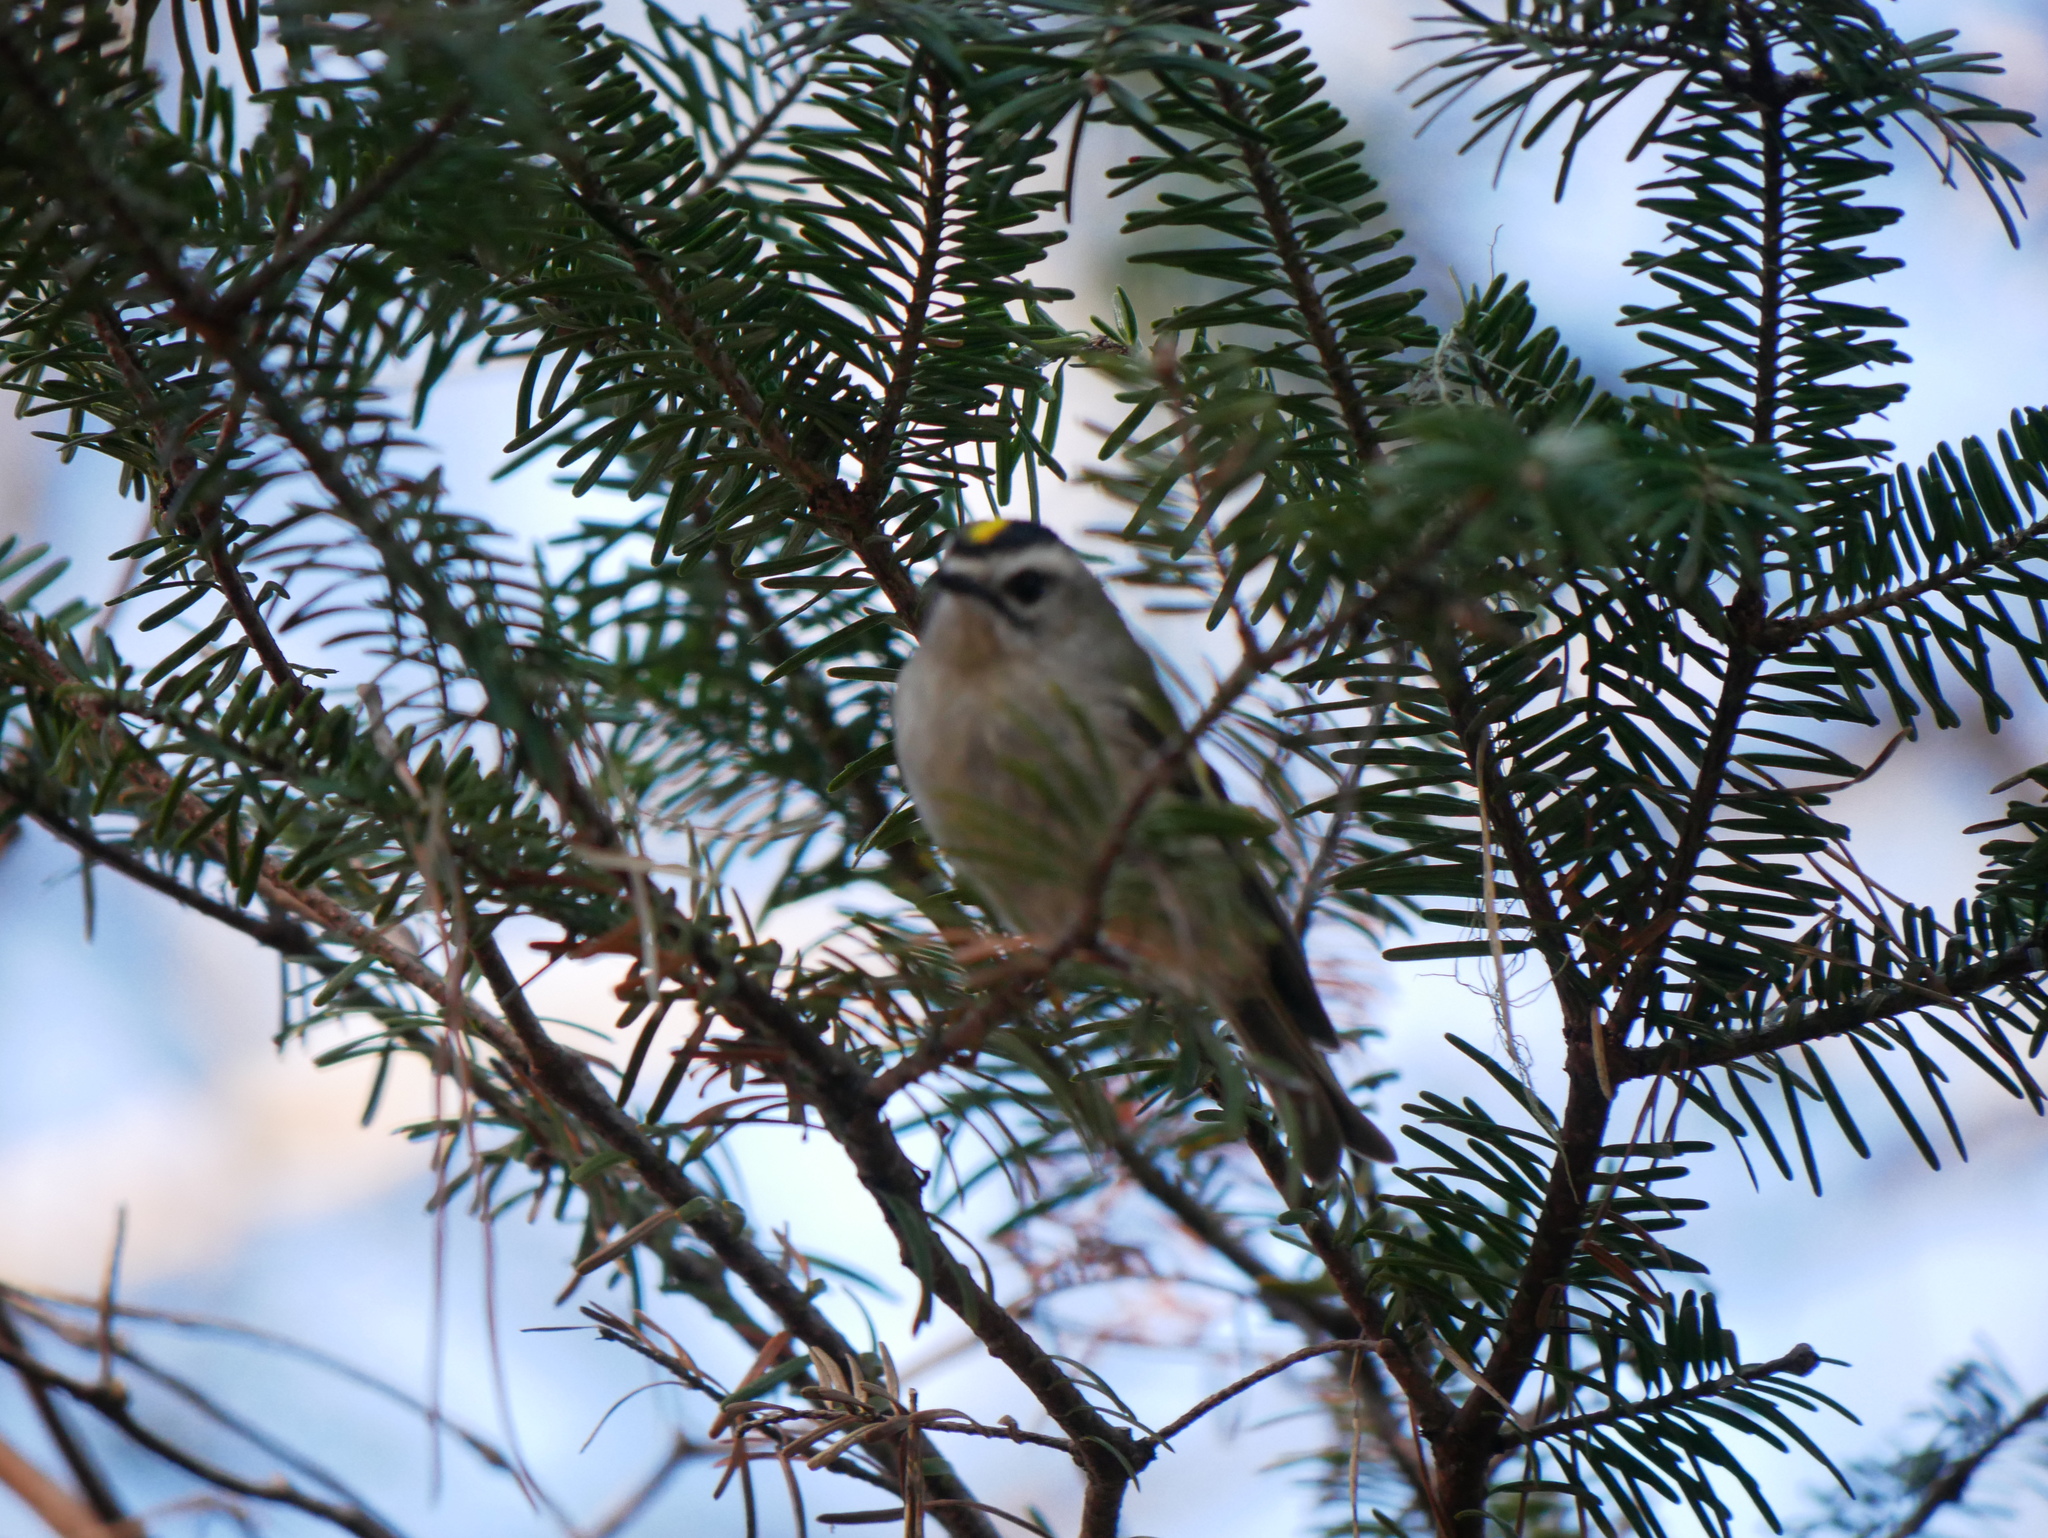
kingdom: Animalia
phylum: Chordata
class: Aves
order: Passeriformes
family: Regulidae
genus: Regulus
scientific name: Regulus satrapa
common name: Golden-crowned kinglet
